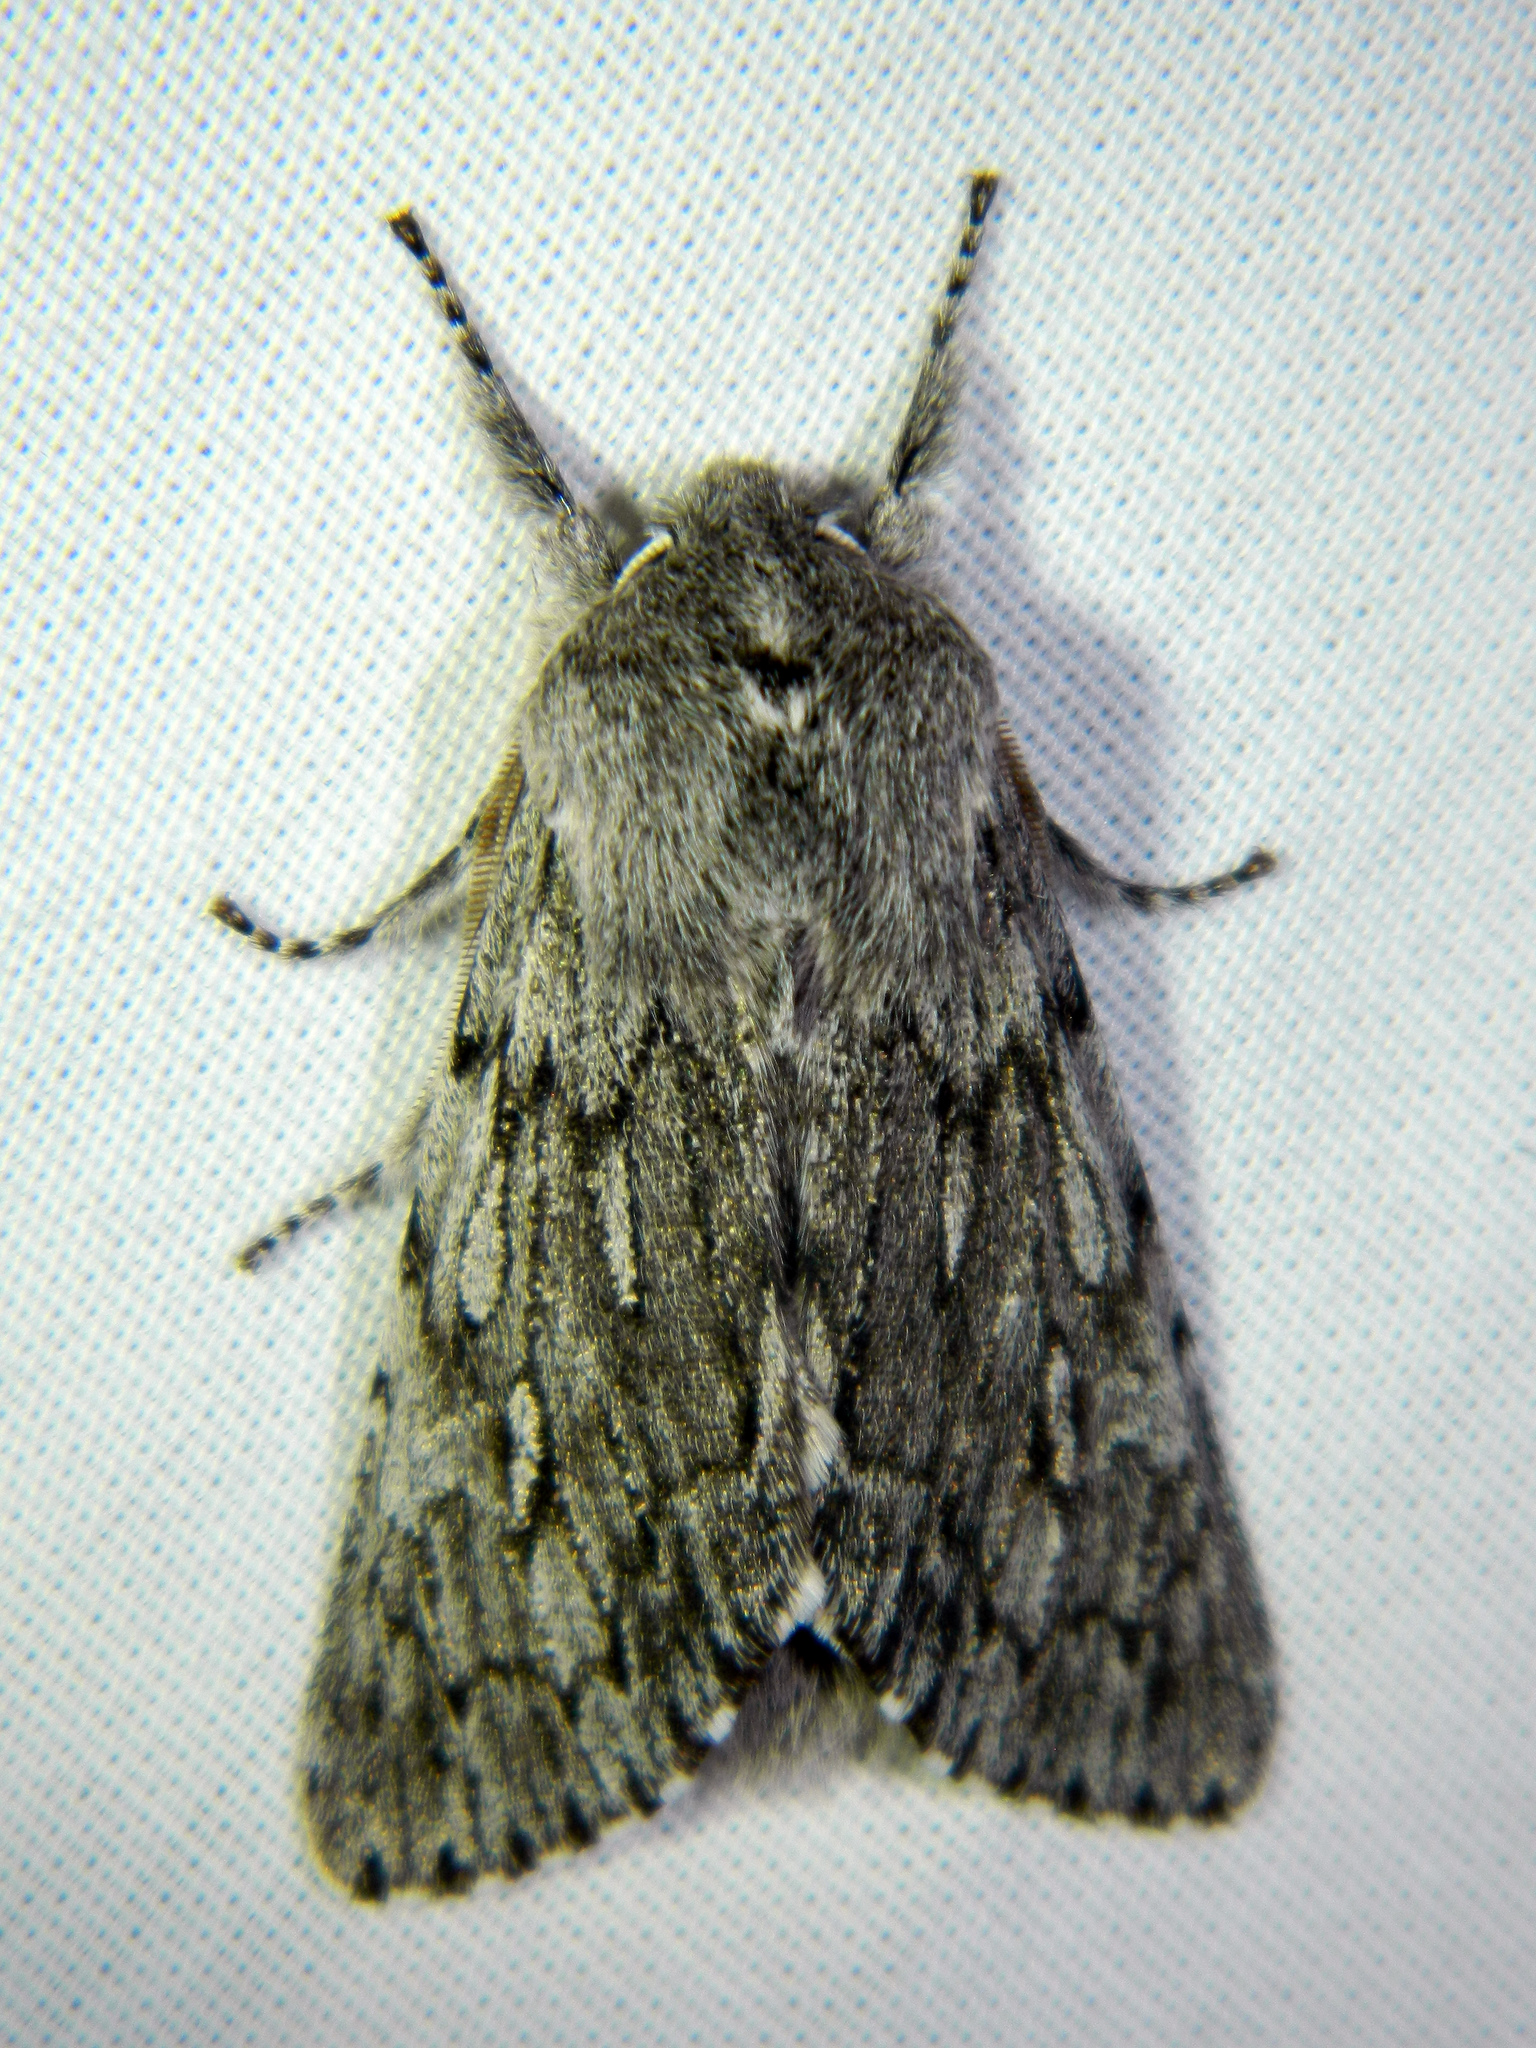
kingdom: Animalia
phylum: Arthropoda
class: Insecta
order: Lepidoptera
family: Noctuidae
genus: Brachionycha
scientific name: Brachionycha borealis
